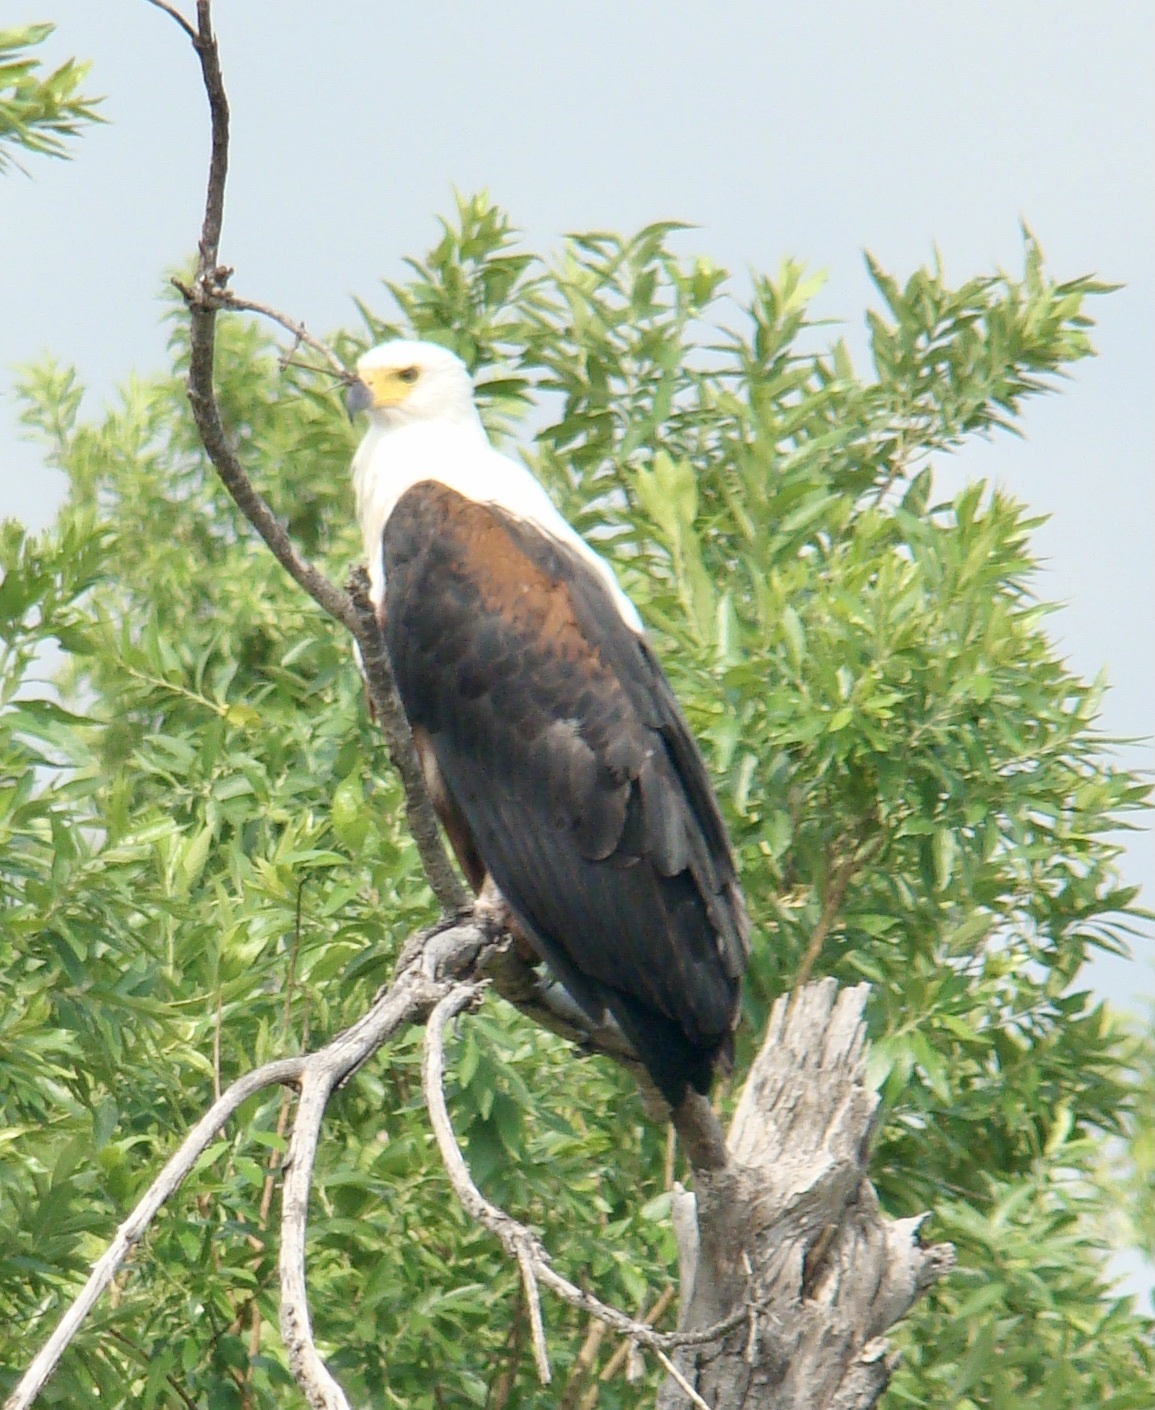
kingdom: Animalia
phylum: Chordata
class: Aves
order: Accipitriformes
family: Accipitridae
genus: Haliaeetus
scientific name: Haliaeetus vocifer
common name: African fish eagle
